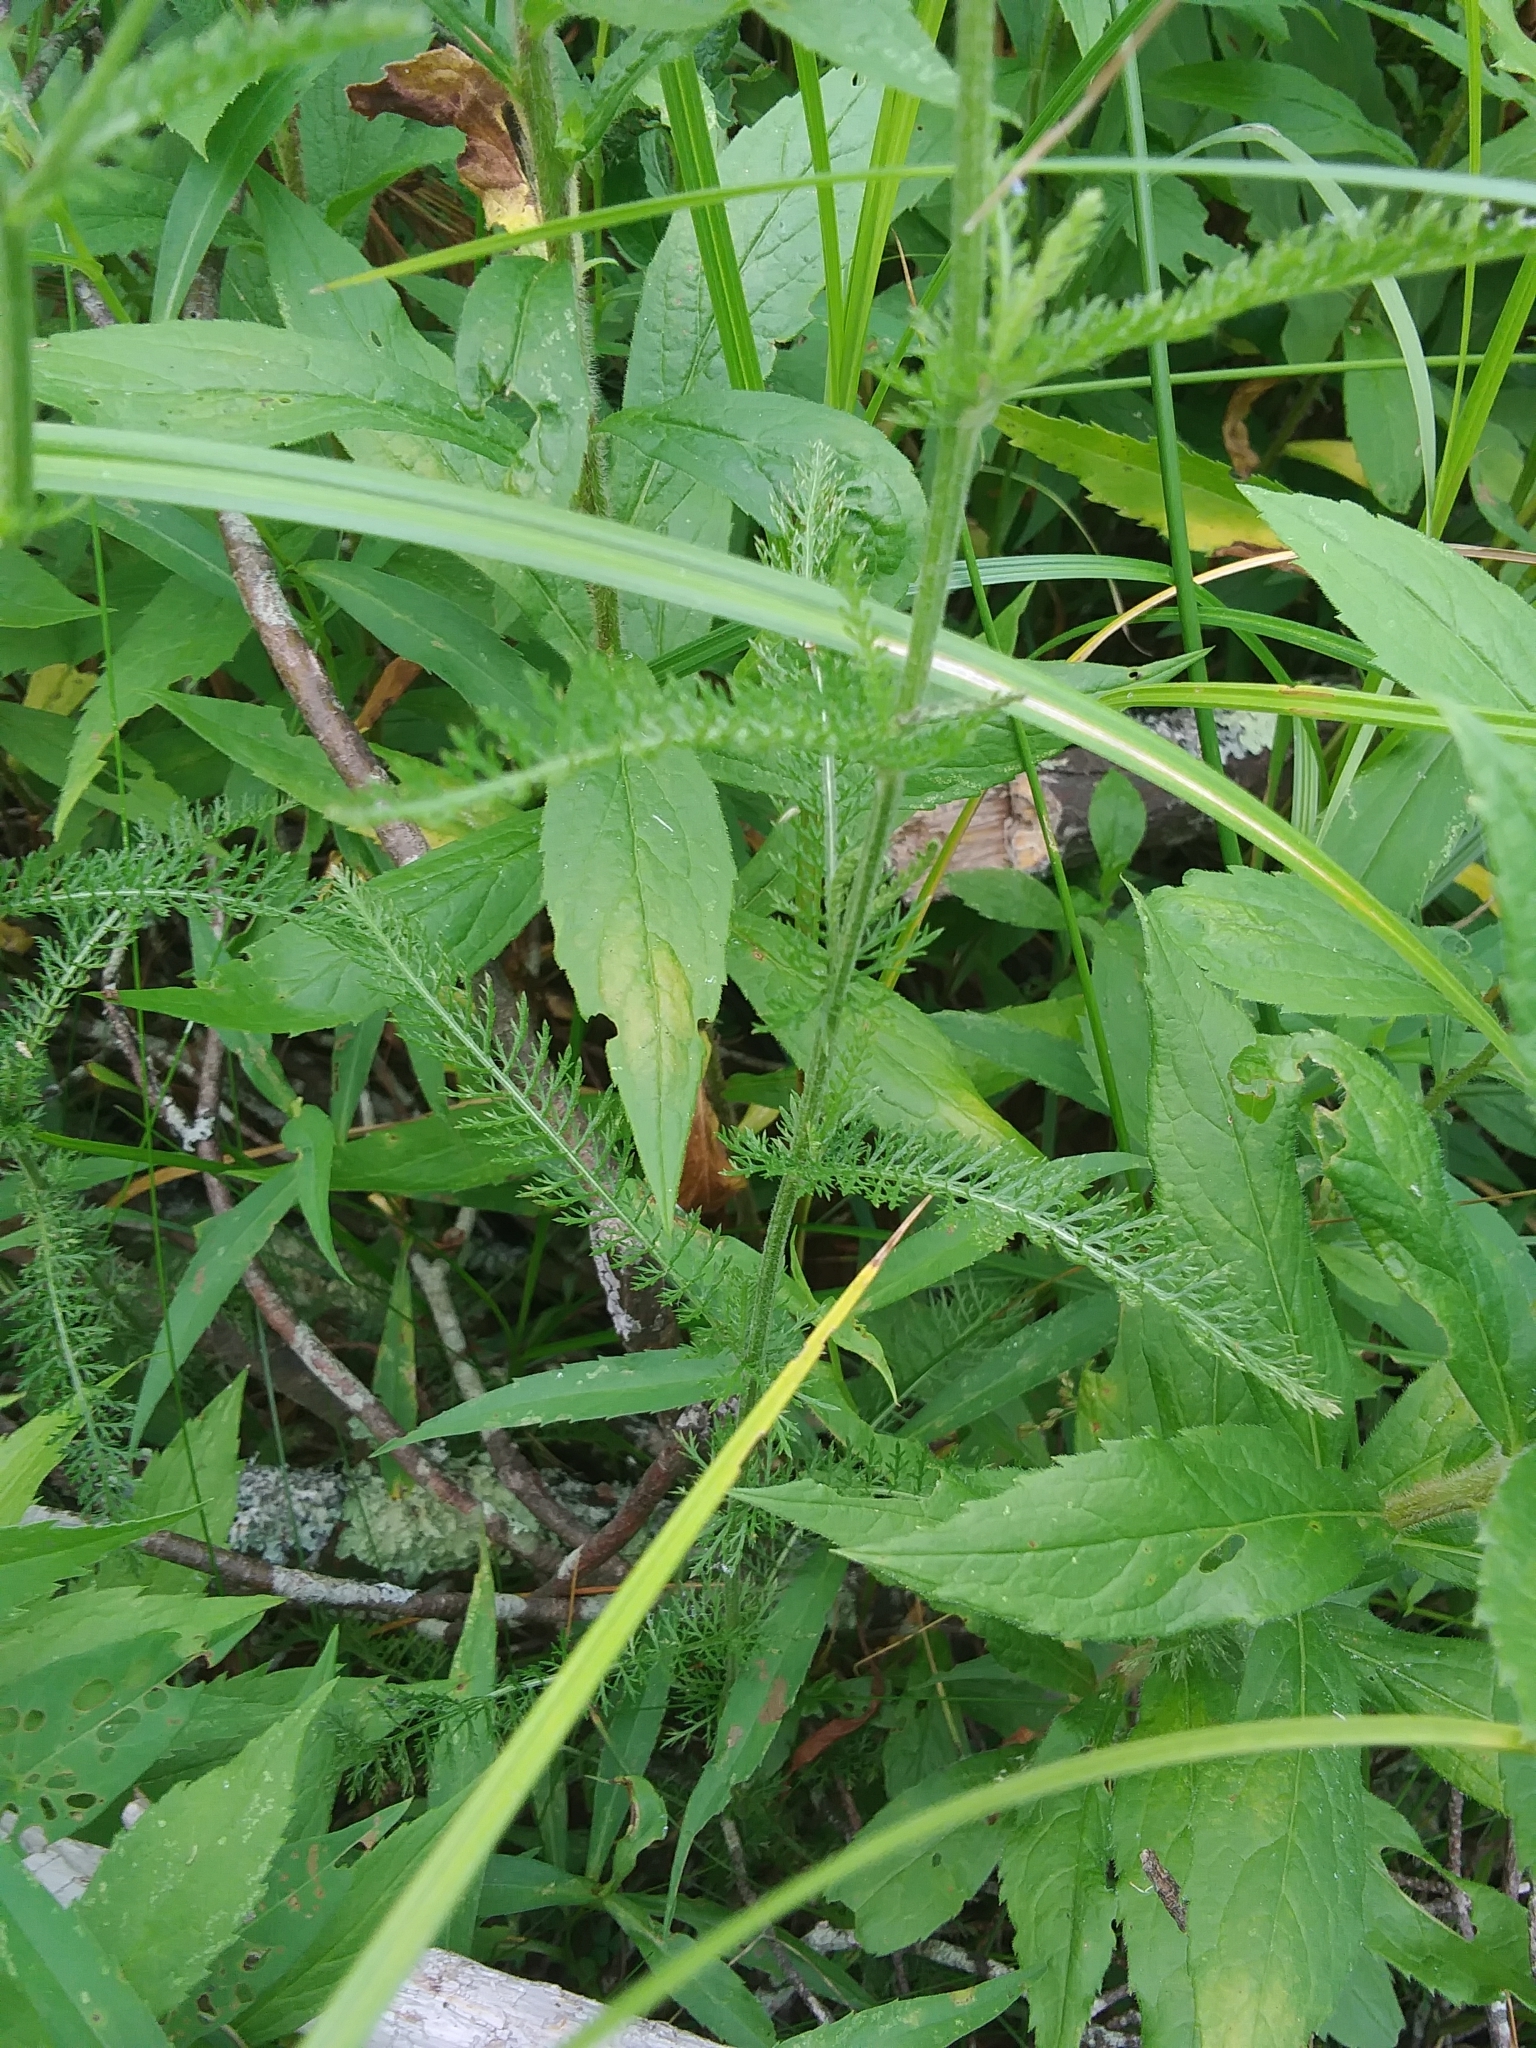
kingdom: Plantae
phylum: Tracheophyta
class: Magnoliopsida
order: Asterales
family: Asteraceae
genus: Achillea
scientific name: Achillea millefolium
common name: Yarrow
